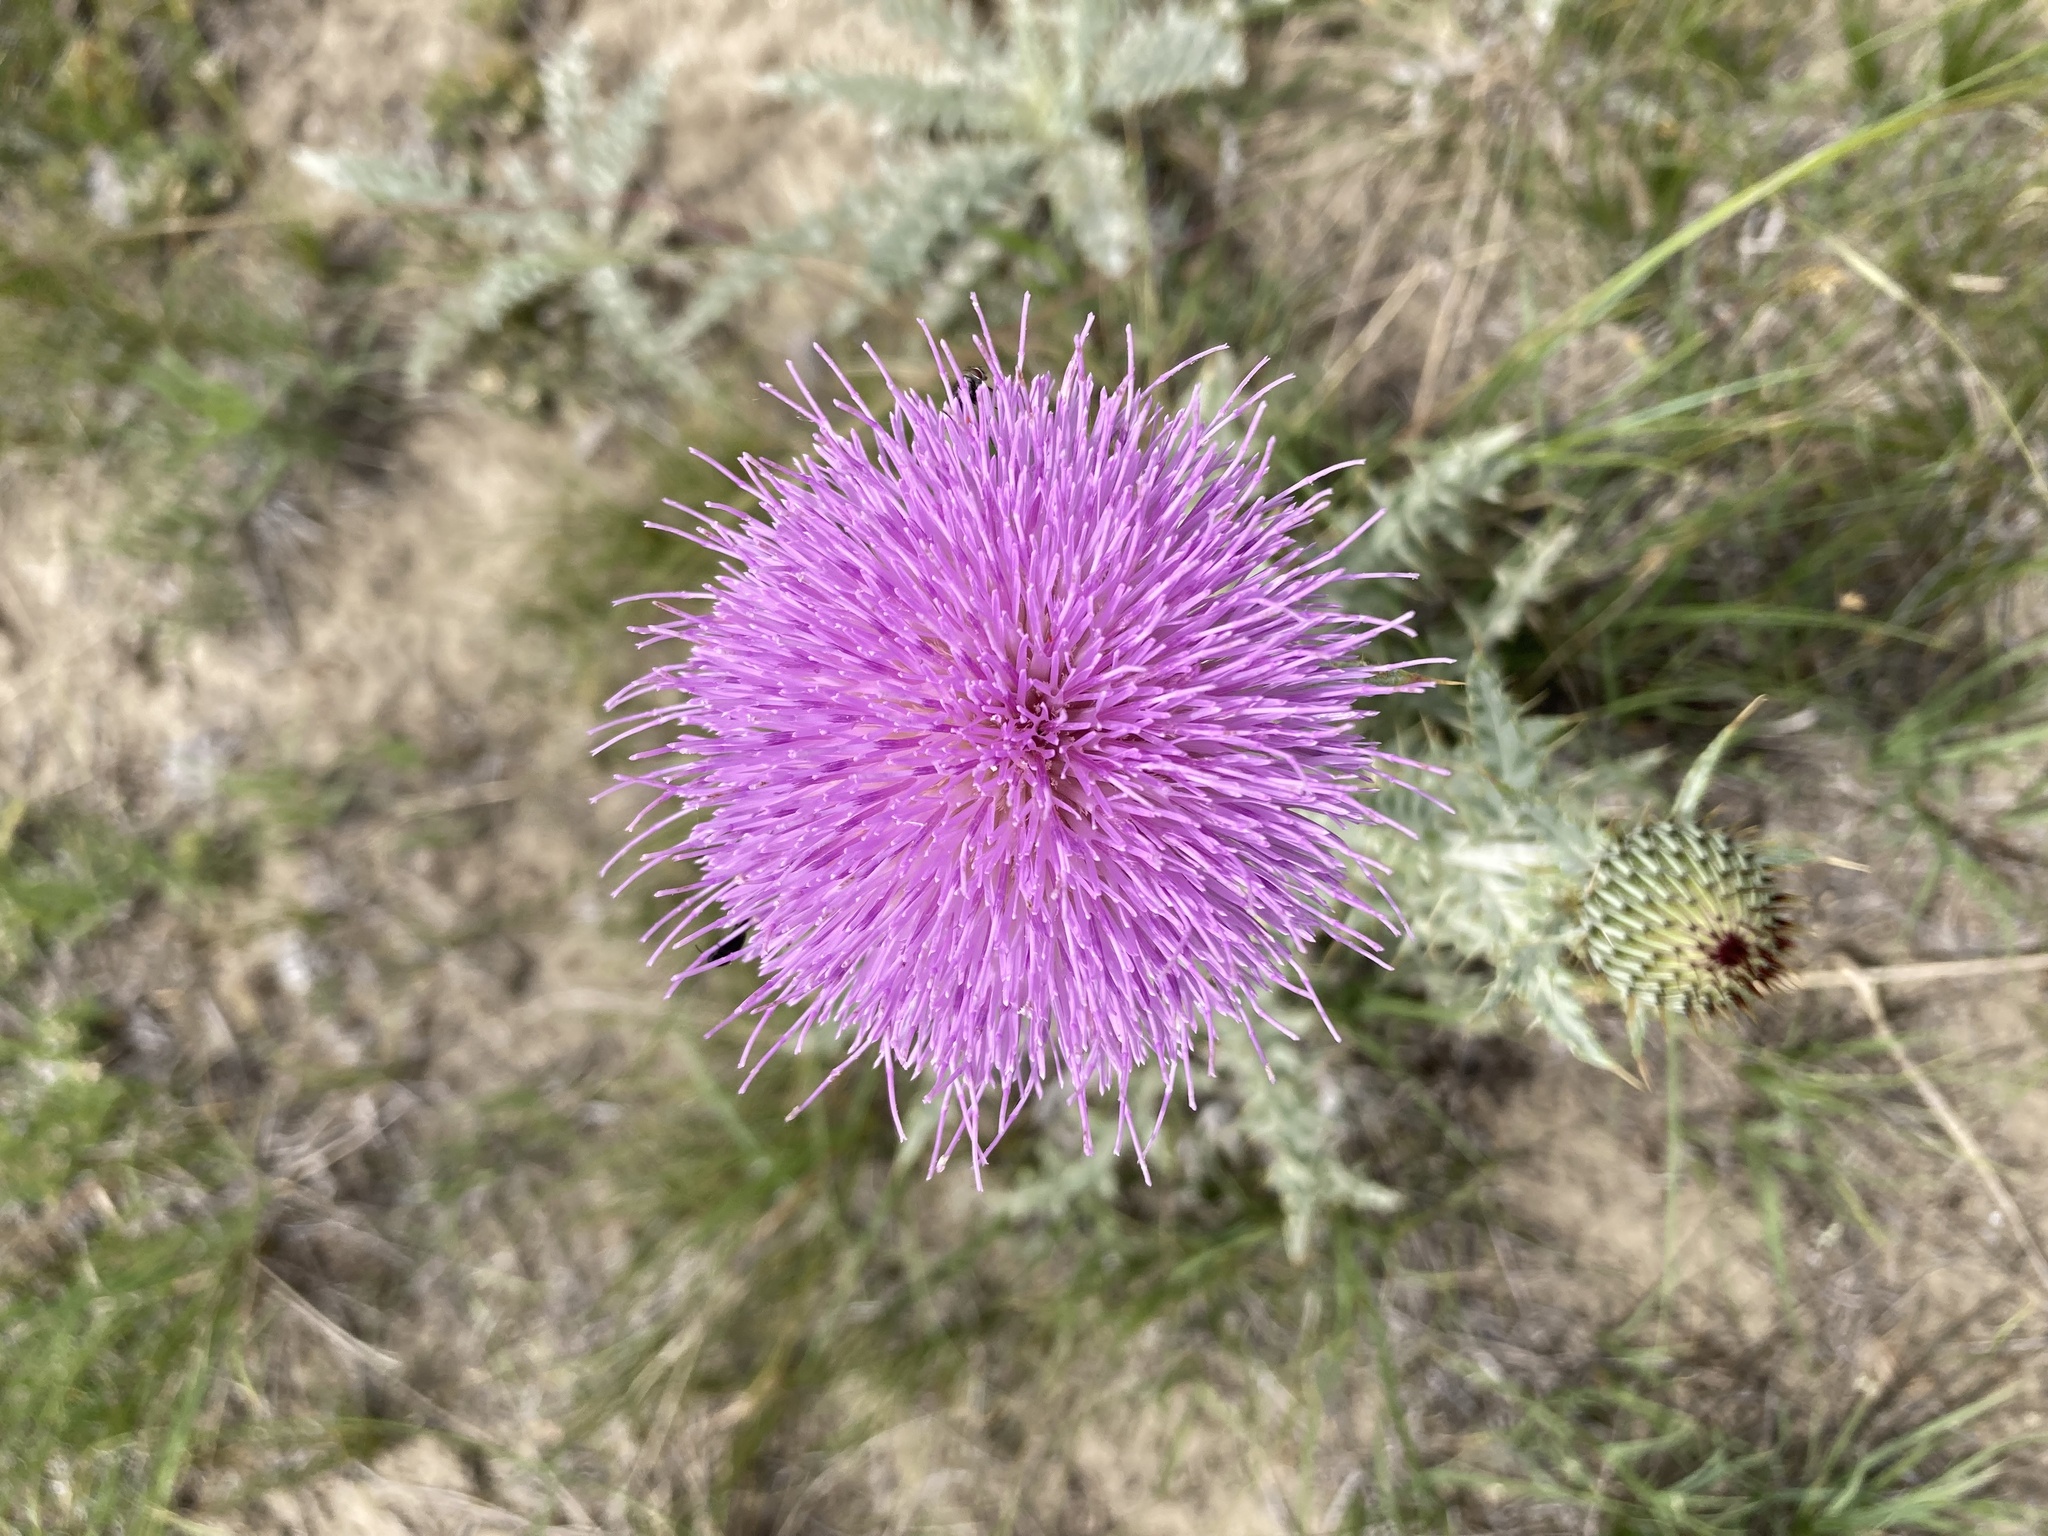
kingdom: Plantae
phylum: Tracheophyta
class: Magnoliopsida
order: Asterales
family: Asteraceae
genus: Cirsium
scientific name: Cirsium undulatum
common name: Pasture thistle
